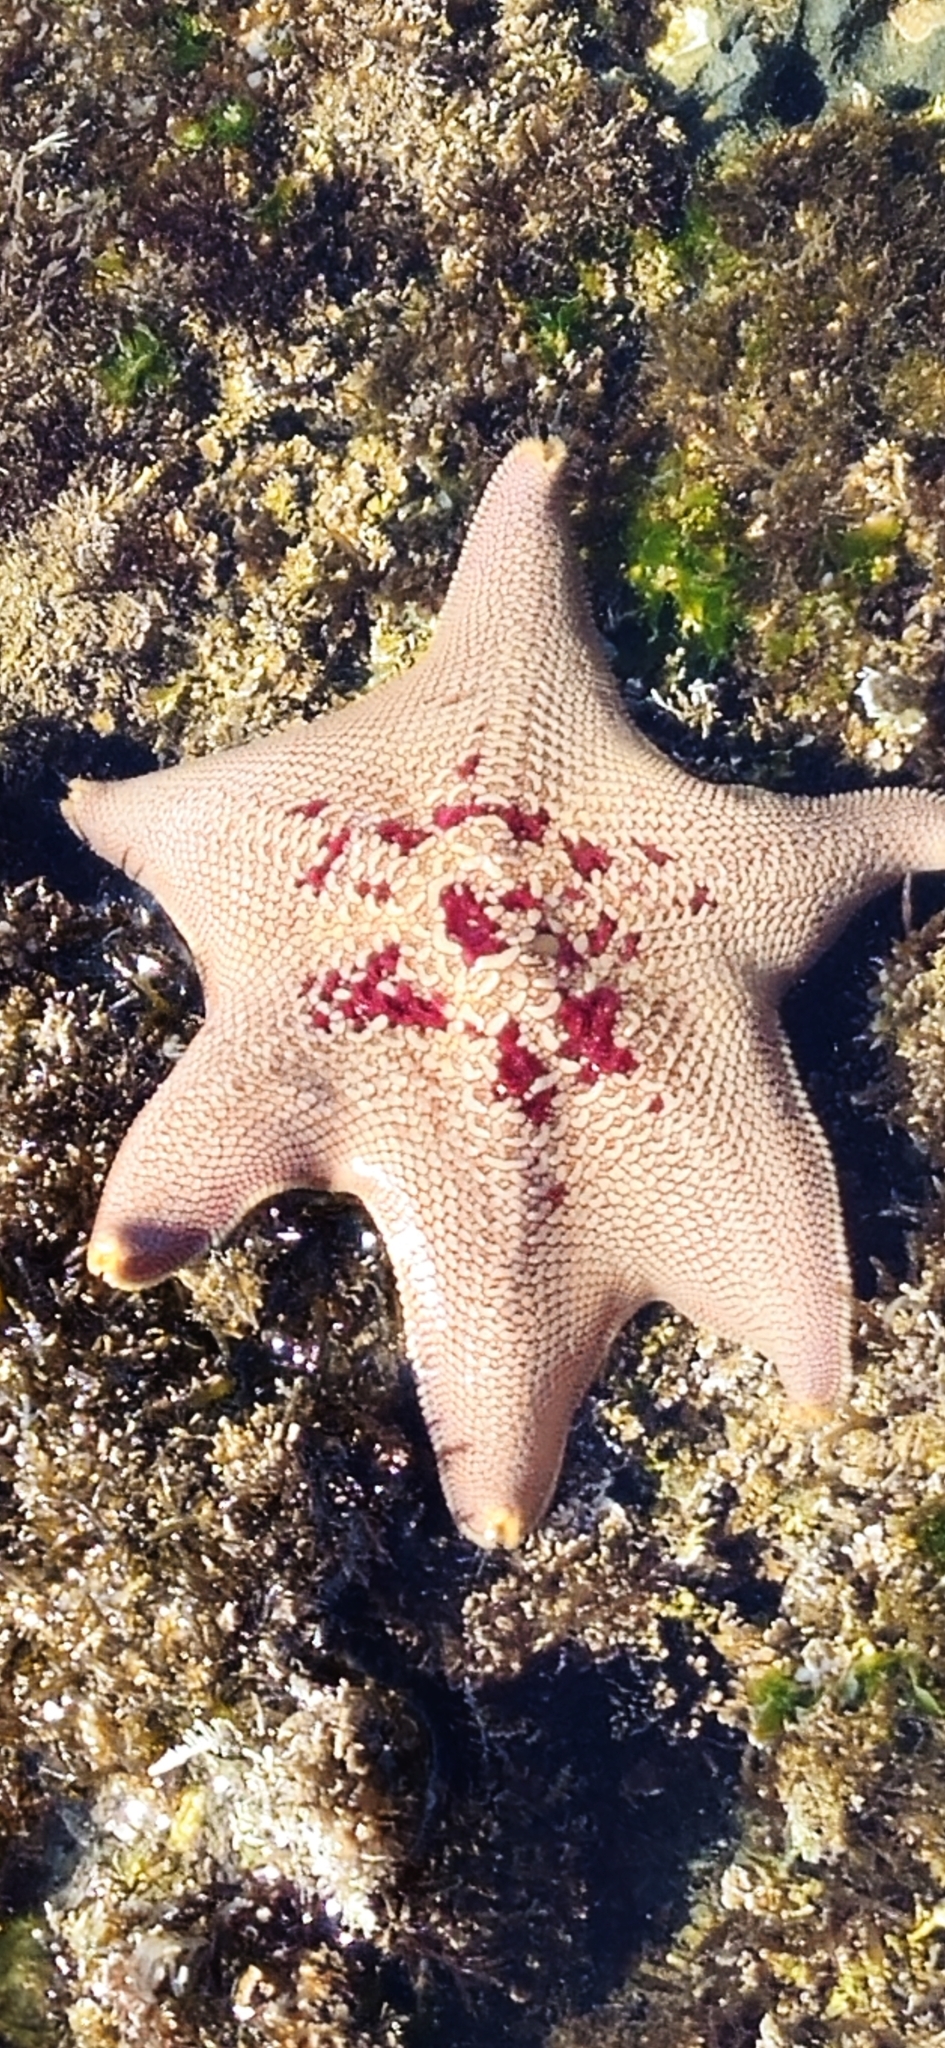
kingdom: Animalia
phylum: Echinodermata
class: Asteroidea
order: Valvatida
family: Asterinidae
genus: Patiria
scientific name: Patiria miniata
